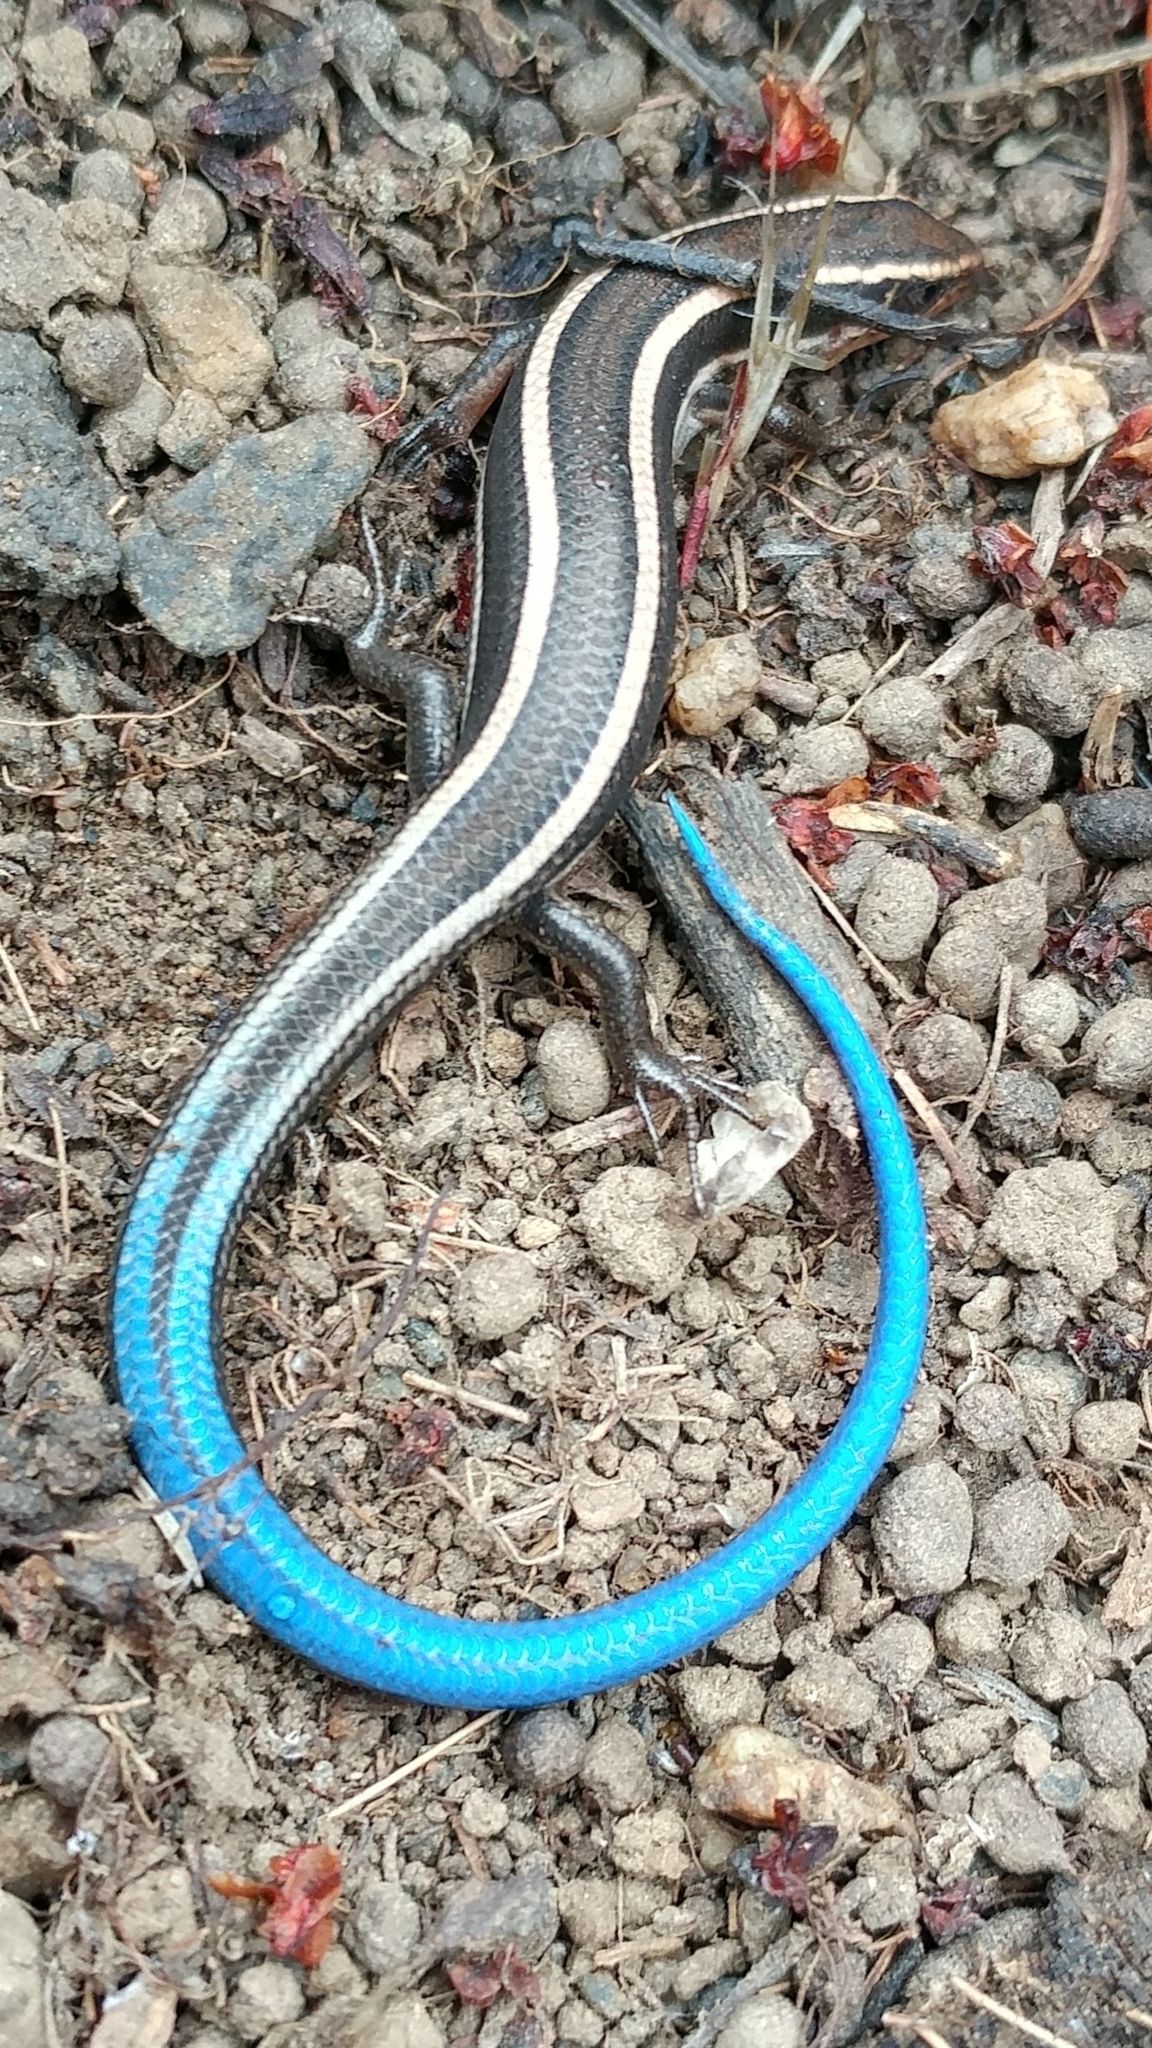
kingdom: Animalia
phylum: Chordata
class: Squamata
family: Scincidae
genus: Plestiodon
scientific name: Plestiodon skiltonianus
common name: Coronado island skink [interparietalis]
